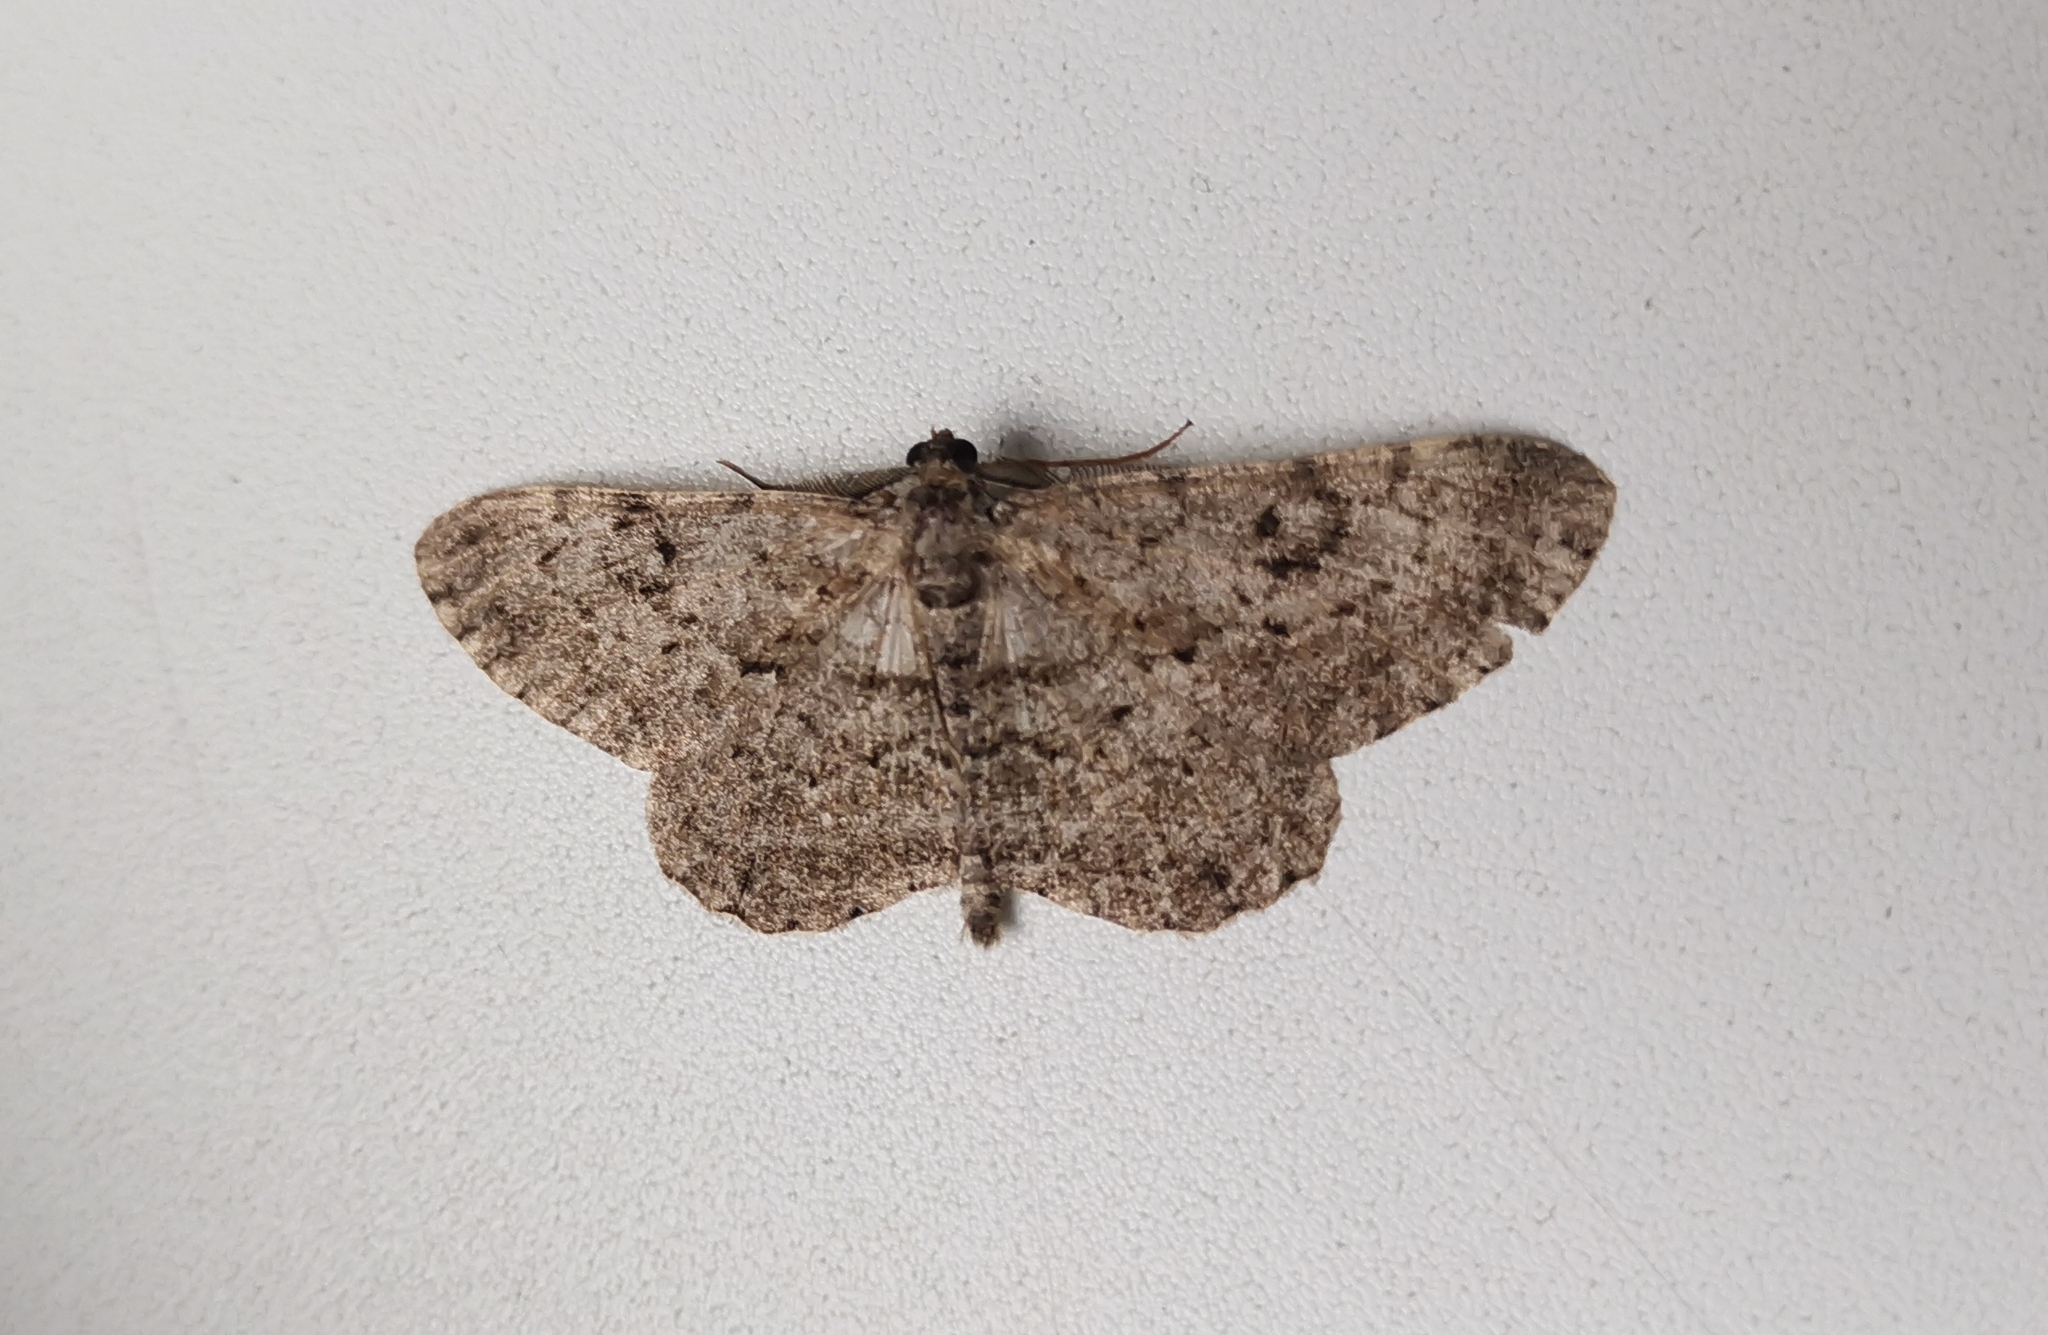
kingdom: Animalia
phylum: Arthropoda
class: Insecta
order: Lepidoptera
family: Geometridae
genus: Peribatodes
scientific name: Peribatodes rhomboidaria
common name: Willow beauty
